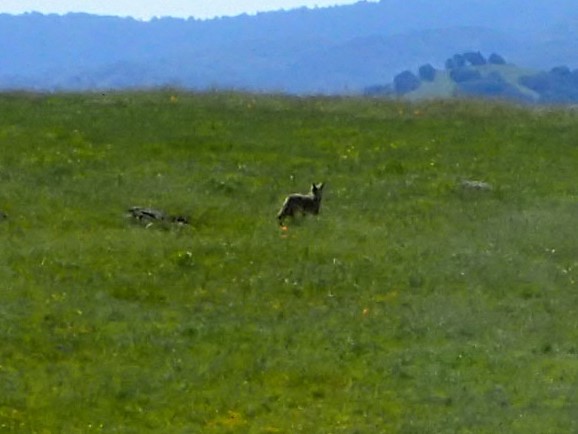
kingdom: Animalia
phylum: Chordata
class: Mammalia
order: Carnivora
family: Canidae
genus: Canis
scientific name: Canis latrans
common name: Coyote
